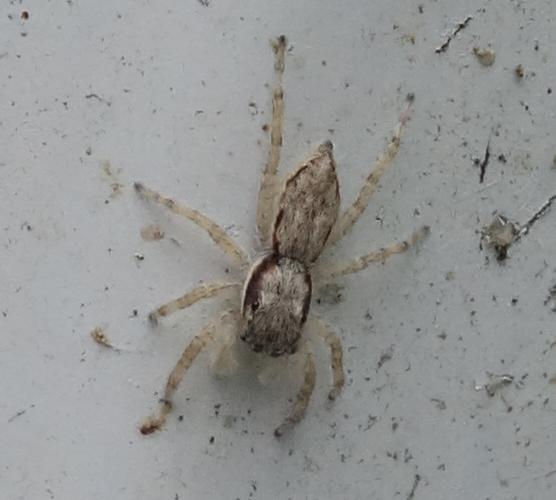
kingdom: Animalia
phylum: Arthropoda
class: Arachnida
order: Araneae
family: Salticidae
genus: Menemerus
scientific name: Menemerus bivittatus
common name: Gray wall jumper
